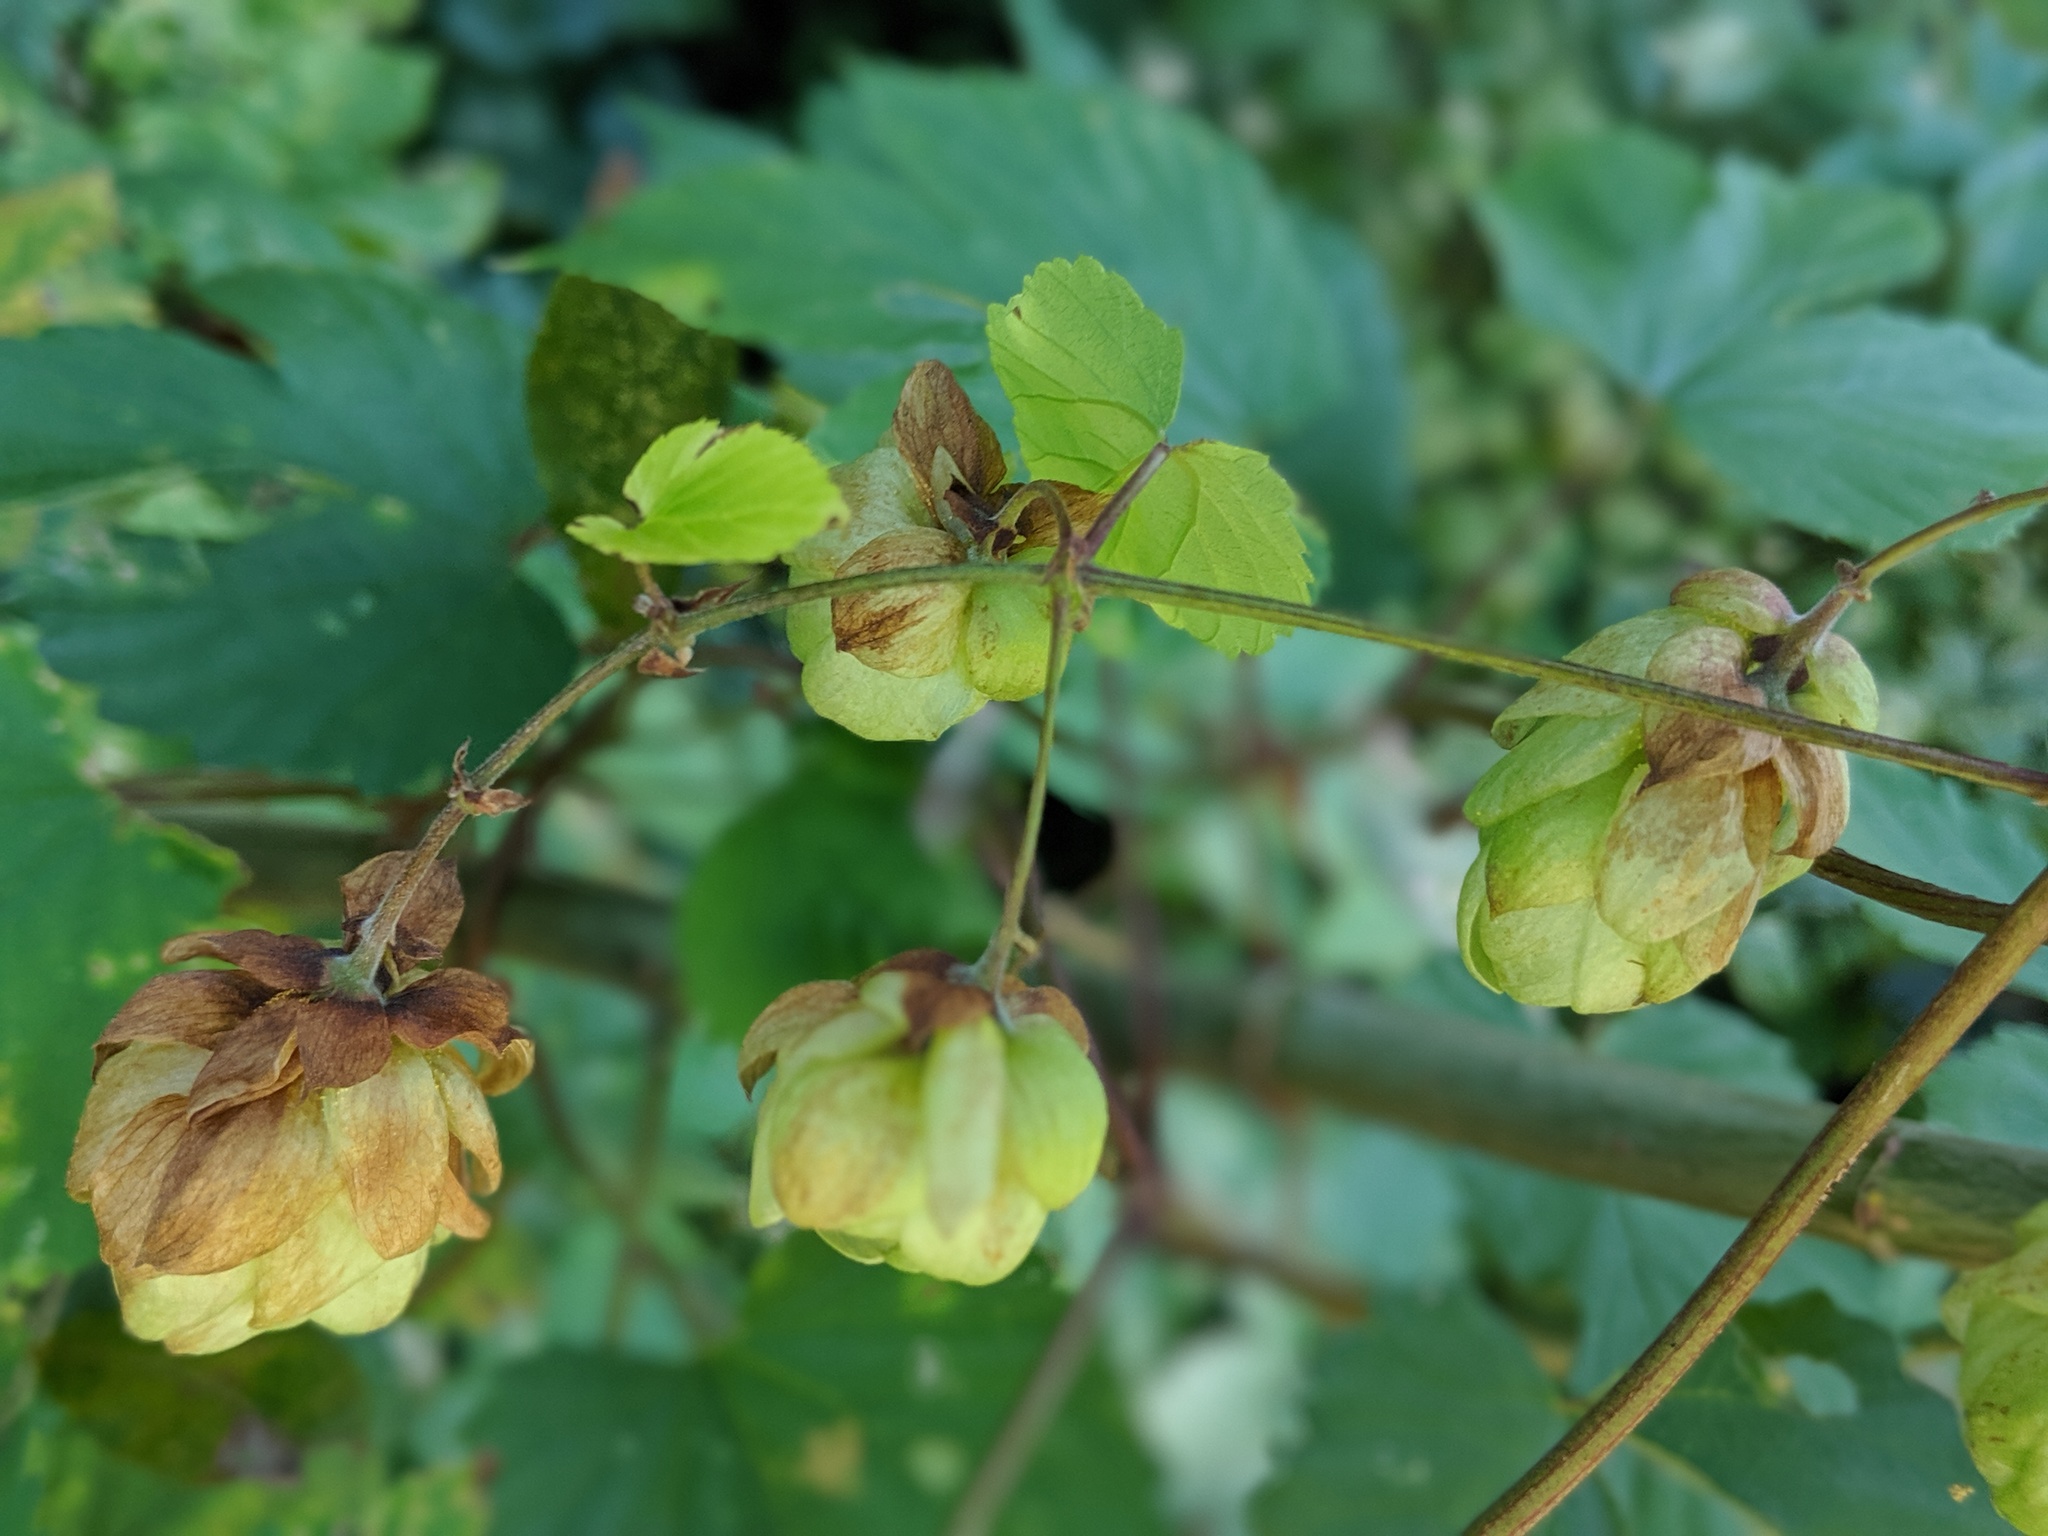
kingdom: Plantae
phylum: Tracheophyta
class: Magnoliopsida
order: Rosales
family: Cannabaceae
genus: Humulus
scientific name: Humulus lupulus
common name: Hop
